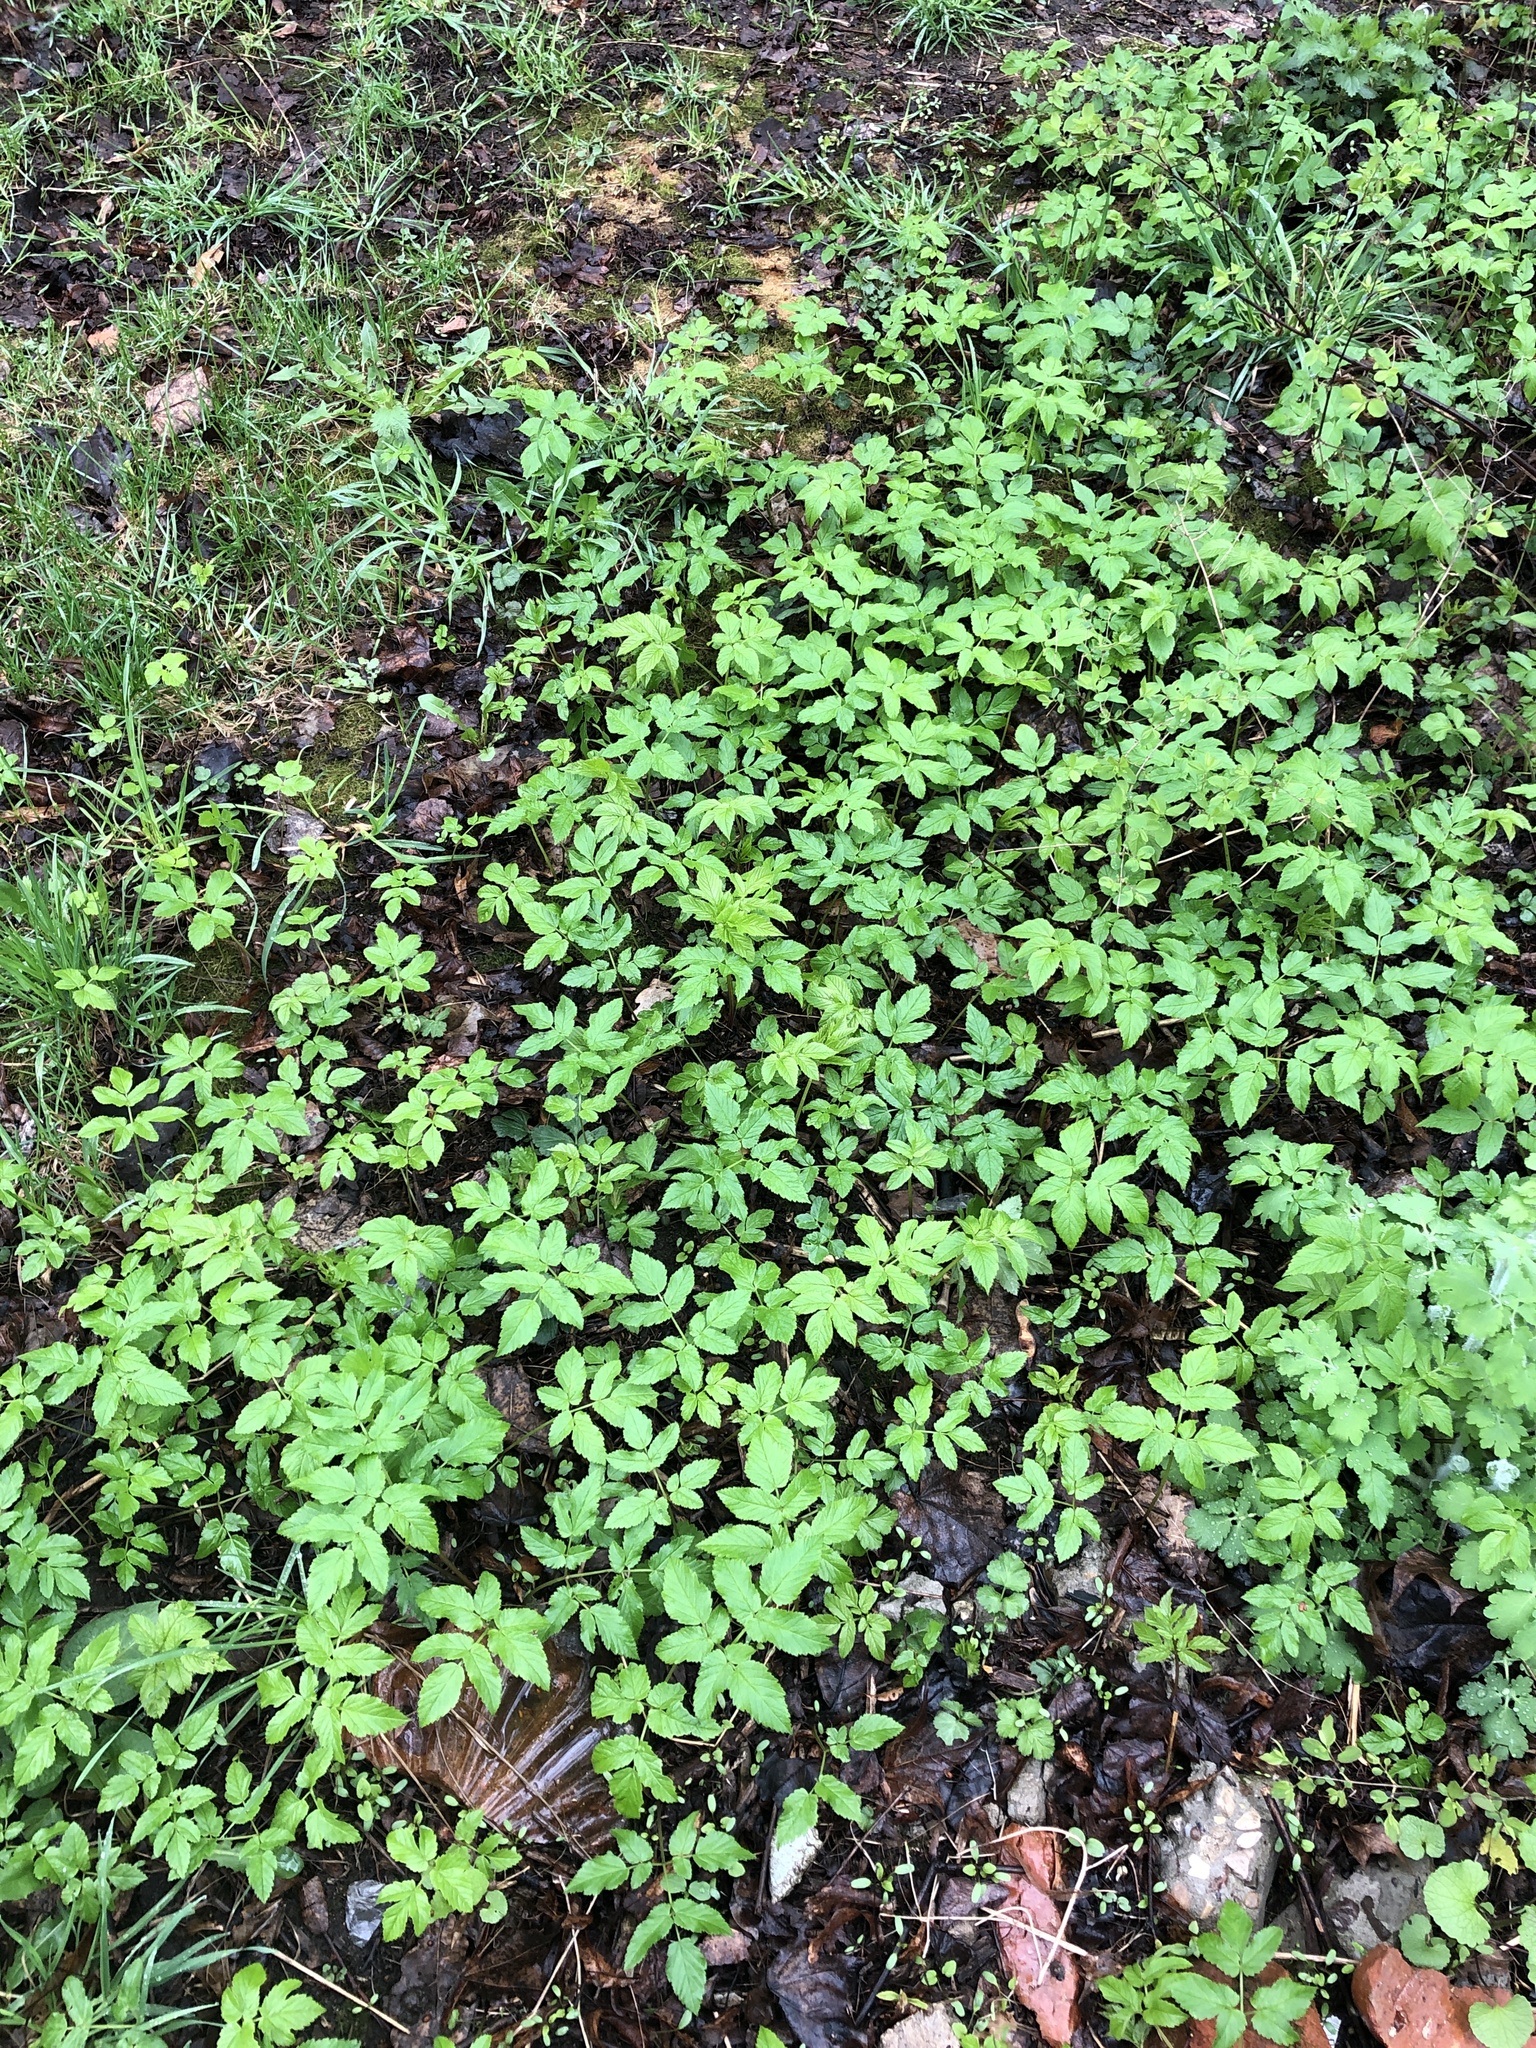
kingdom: Plantae
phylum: Tracheophyta
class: Magnoliopsida
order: Apiales
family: Apiaceae
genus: Aegopodium
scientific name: Aegopodium podagraria
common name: Ground-elder
